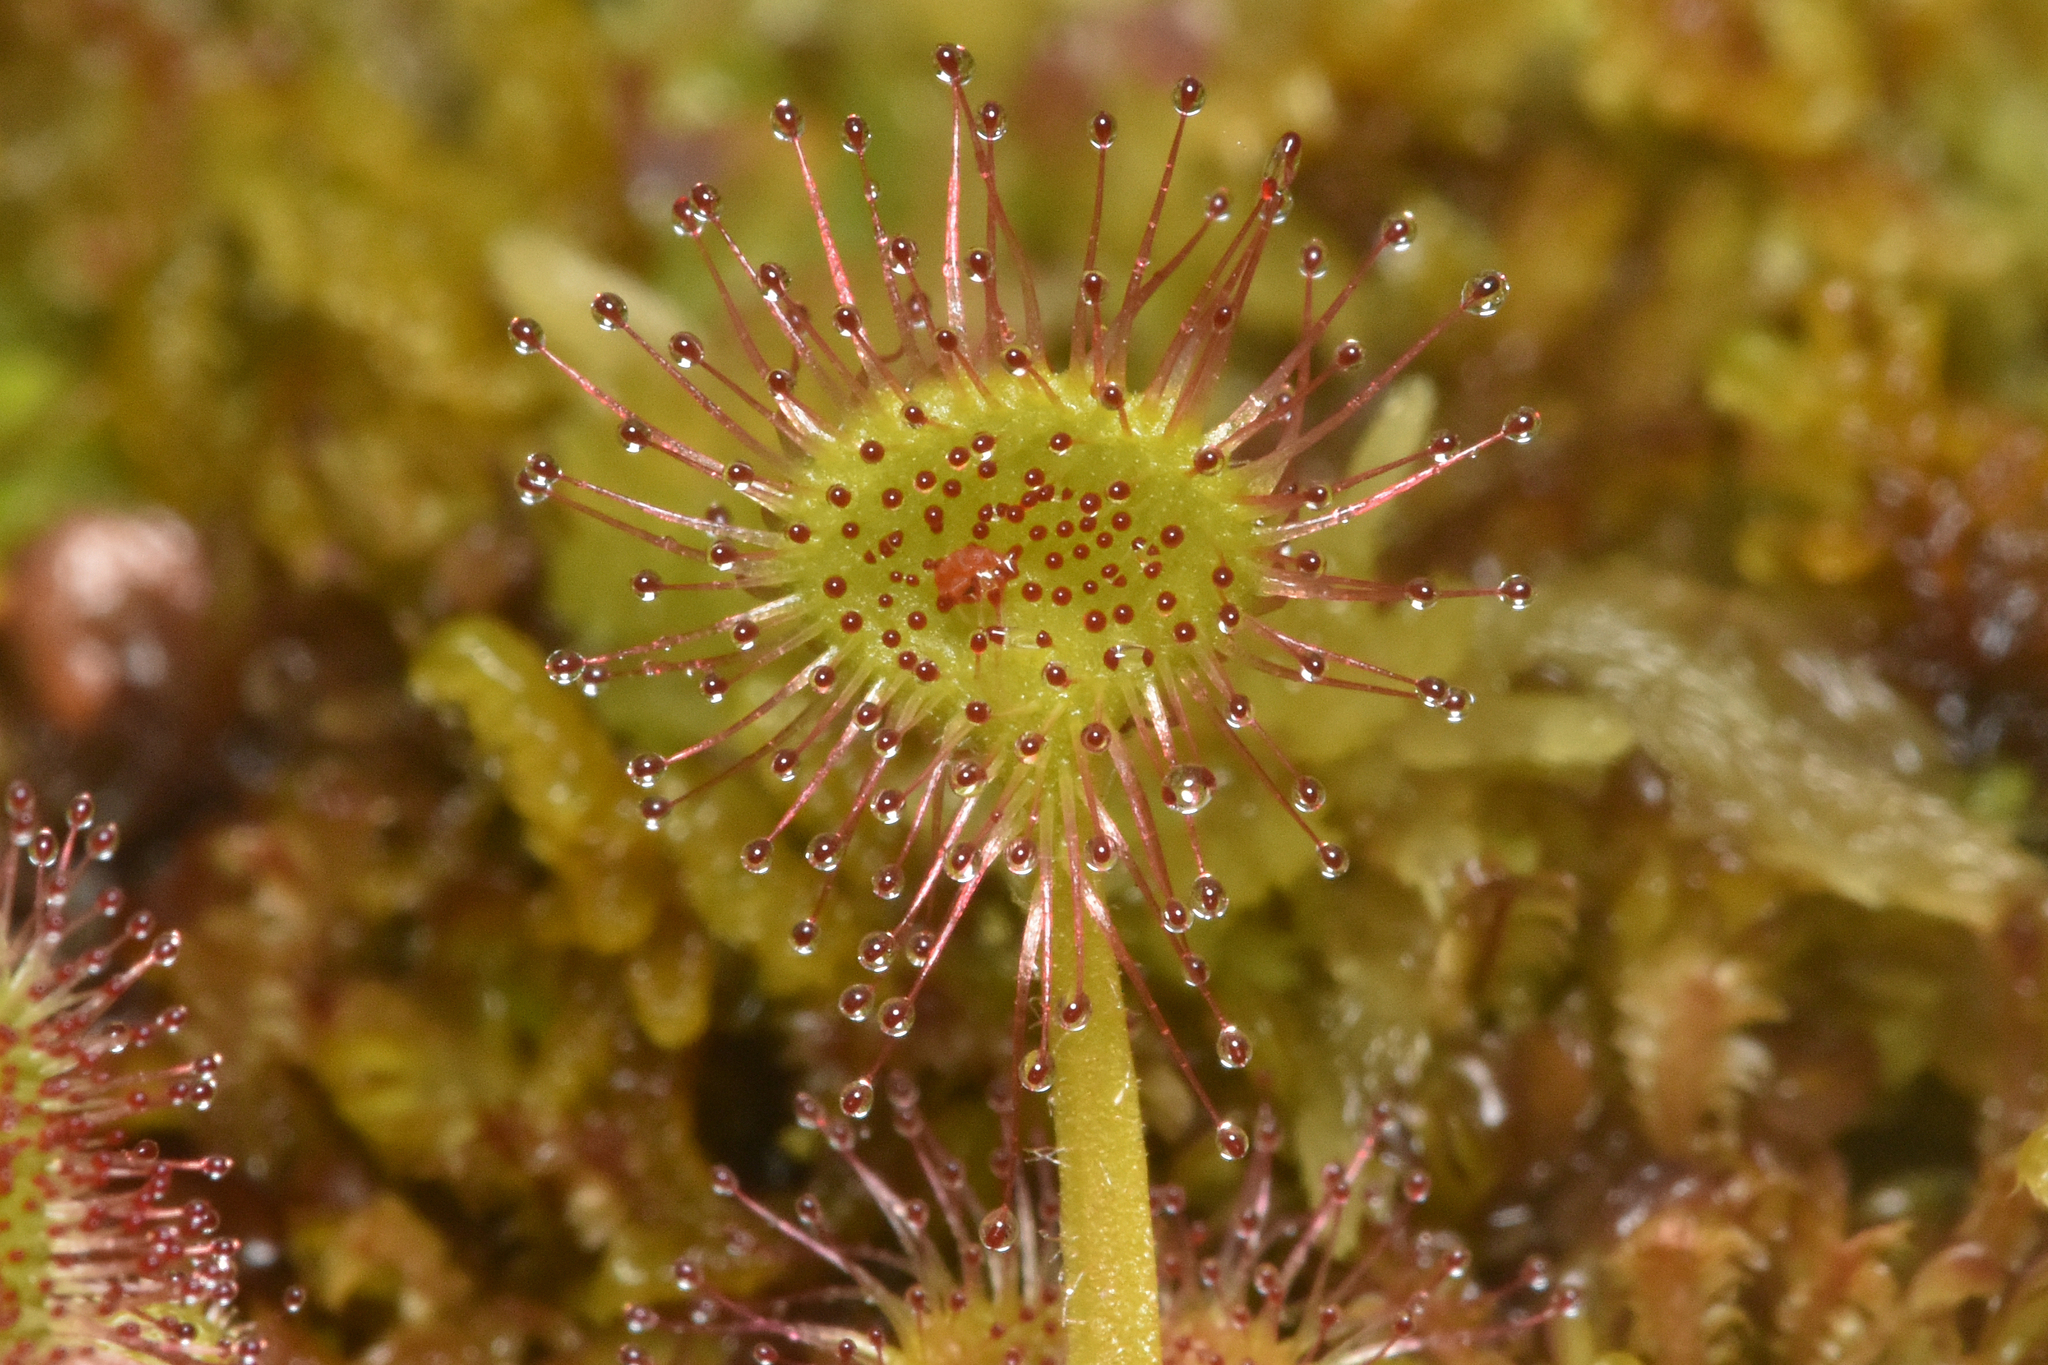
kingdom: Plantae
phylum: Tracheophyta
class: Magnoliopsida
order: Caryophyllales
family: Droseraceae
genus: Drosera
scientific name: Drosera rotundifolia
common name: Round-leaved sundew
